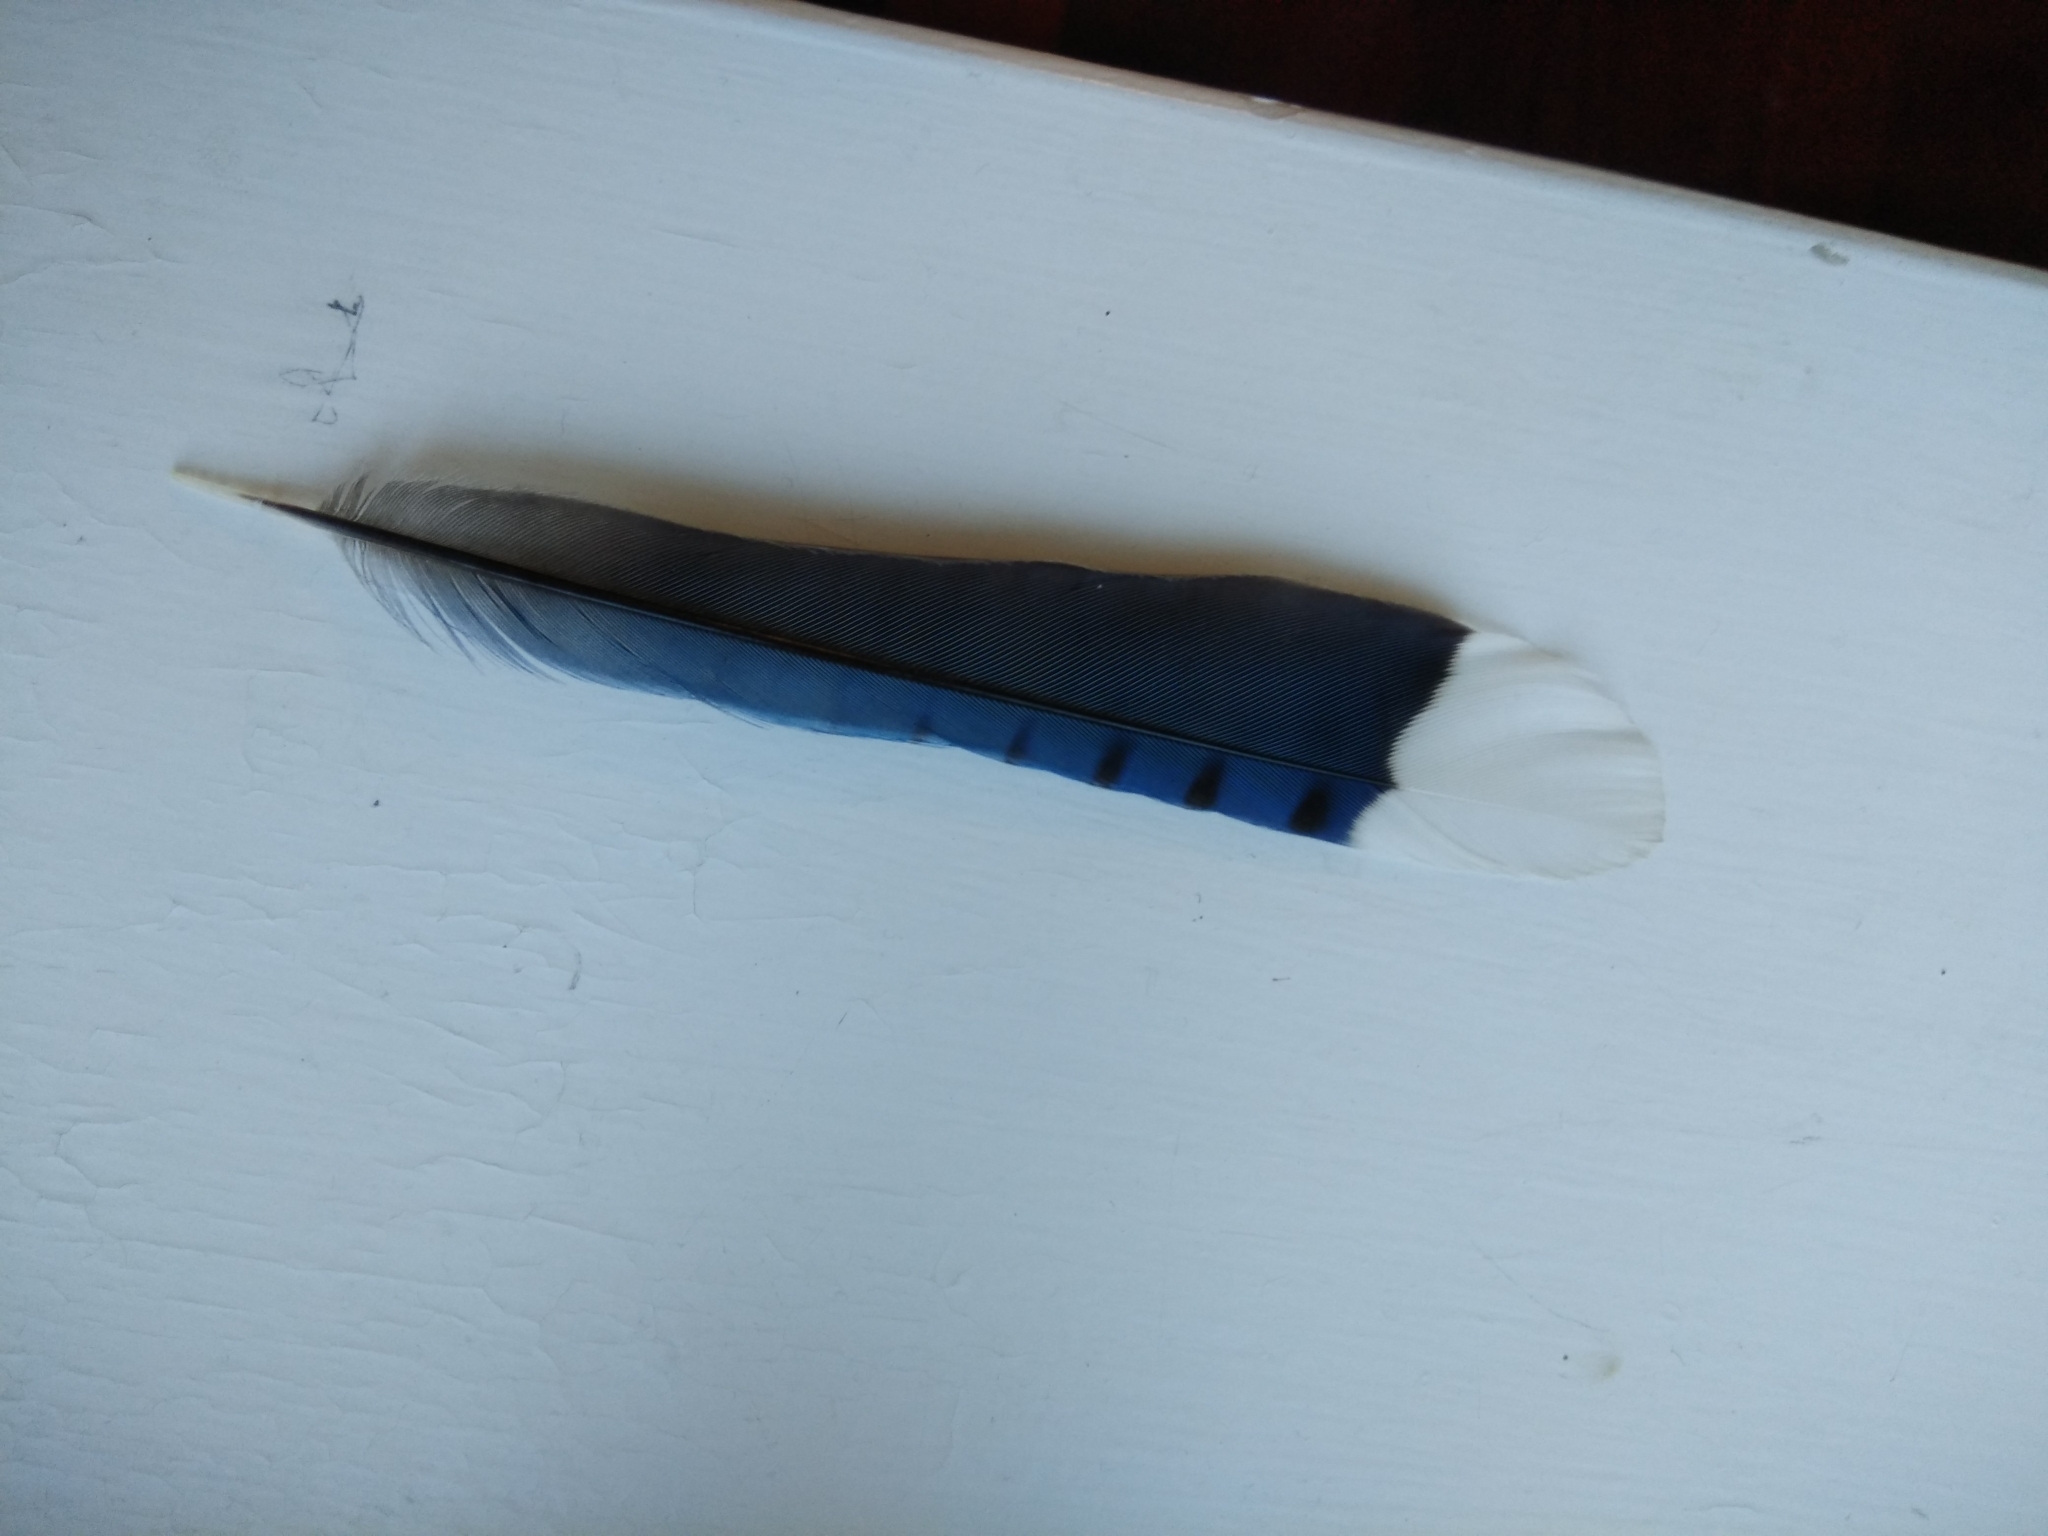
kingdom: Animalia
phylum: Chordata
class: Aves
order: Passeriformes
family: Corvidae
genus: Cyanocitta
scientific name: Cyanocitta cristata
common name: Blue jay
